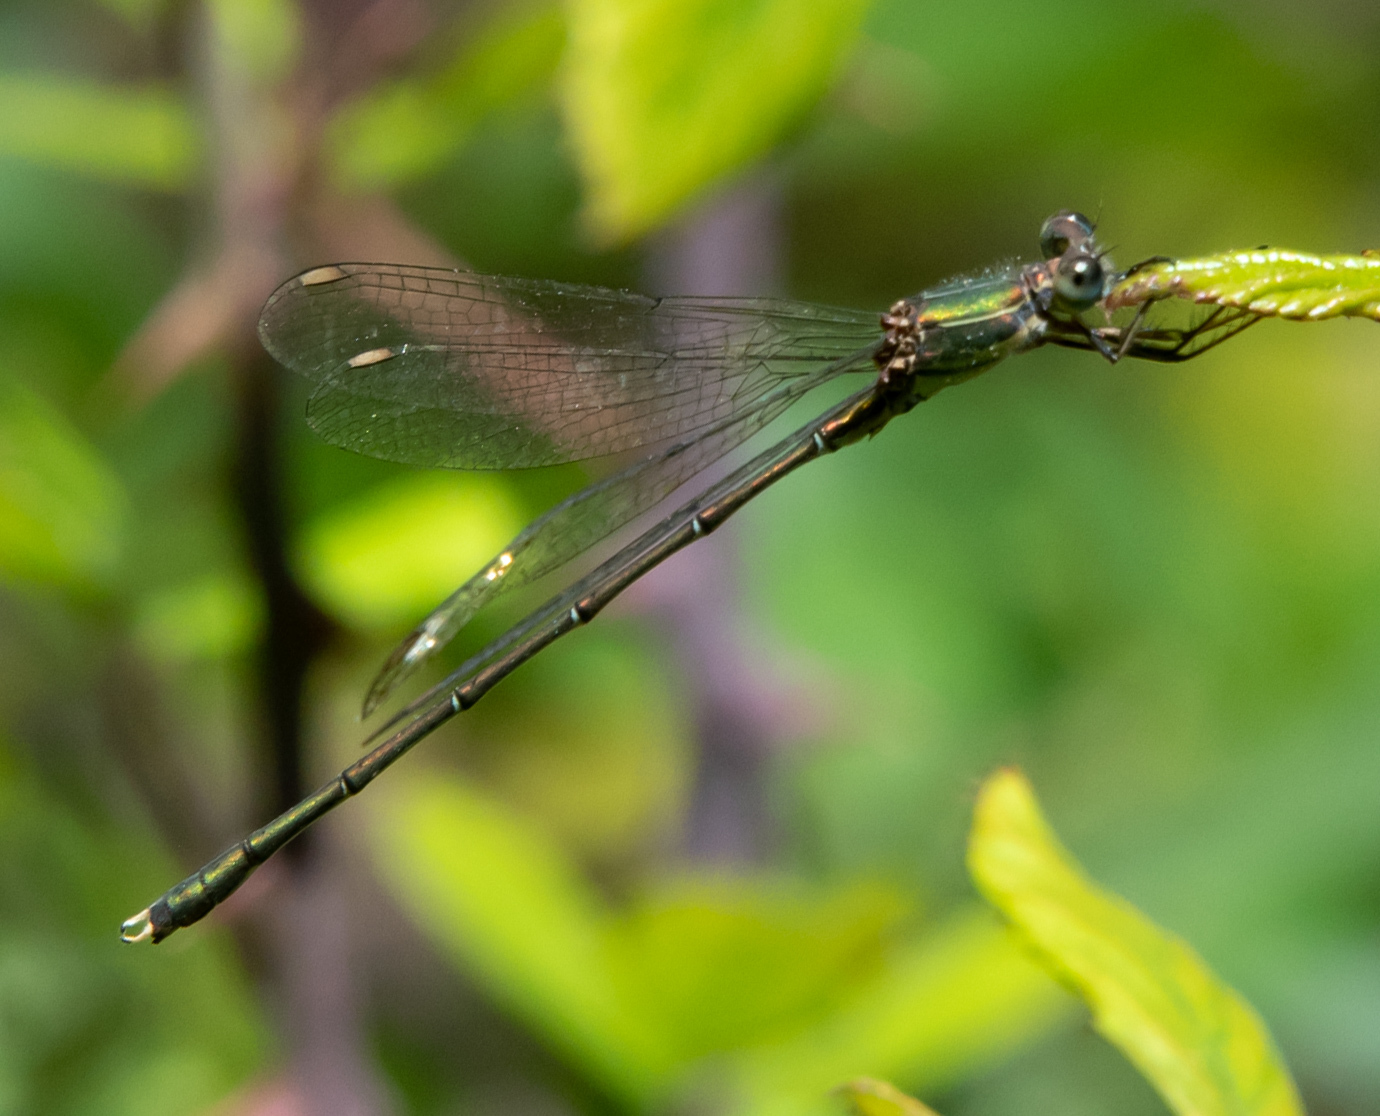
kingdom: Animalia
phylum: Arthropoda
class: Insecta
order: Odonata
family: Lestidae
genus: Chalcolestes
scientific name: Chalcolestes viridis
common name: Green emerald damselfly
